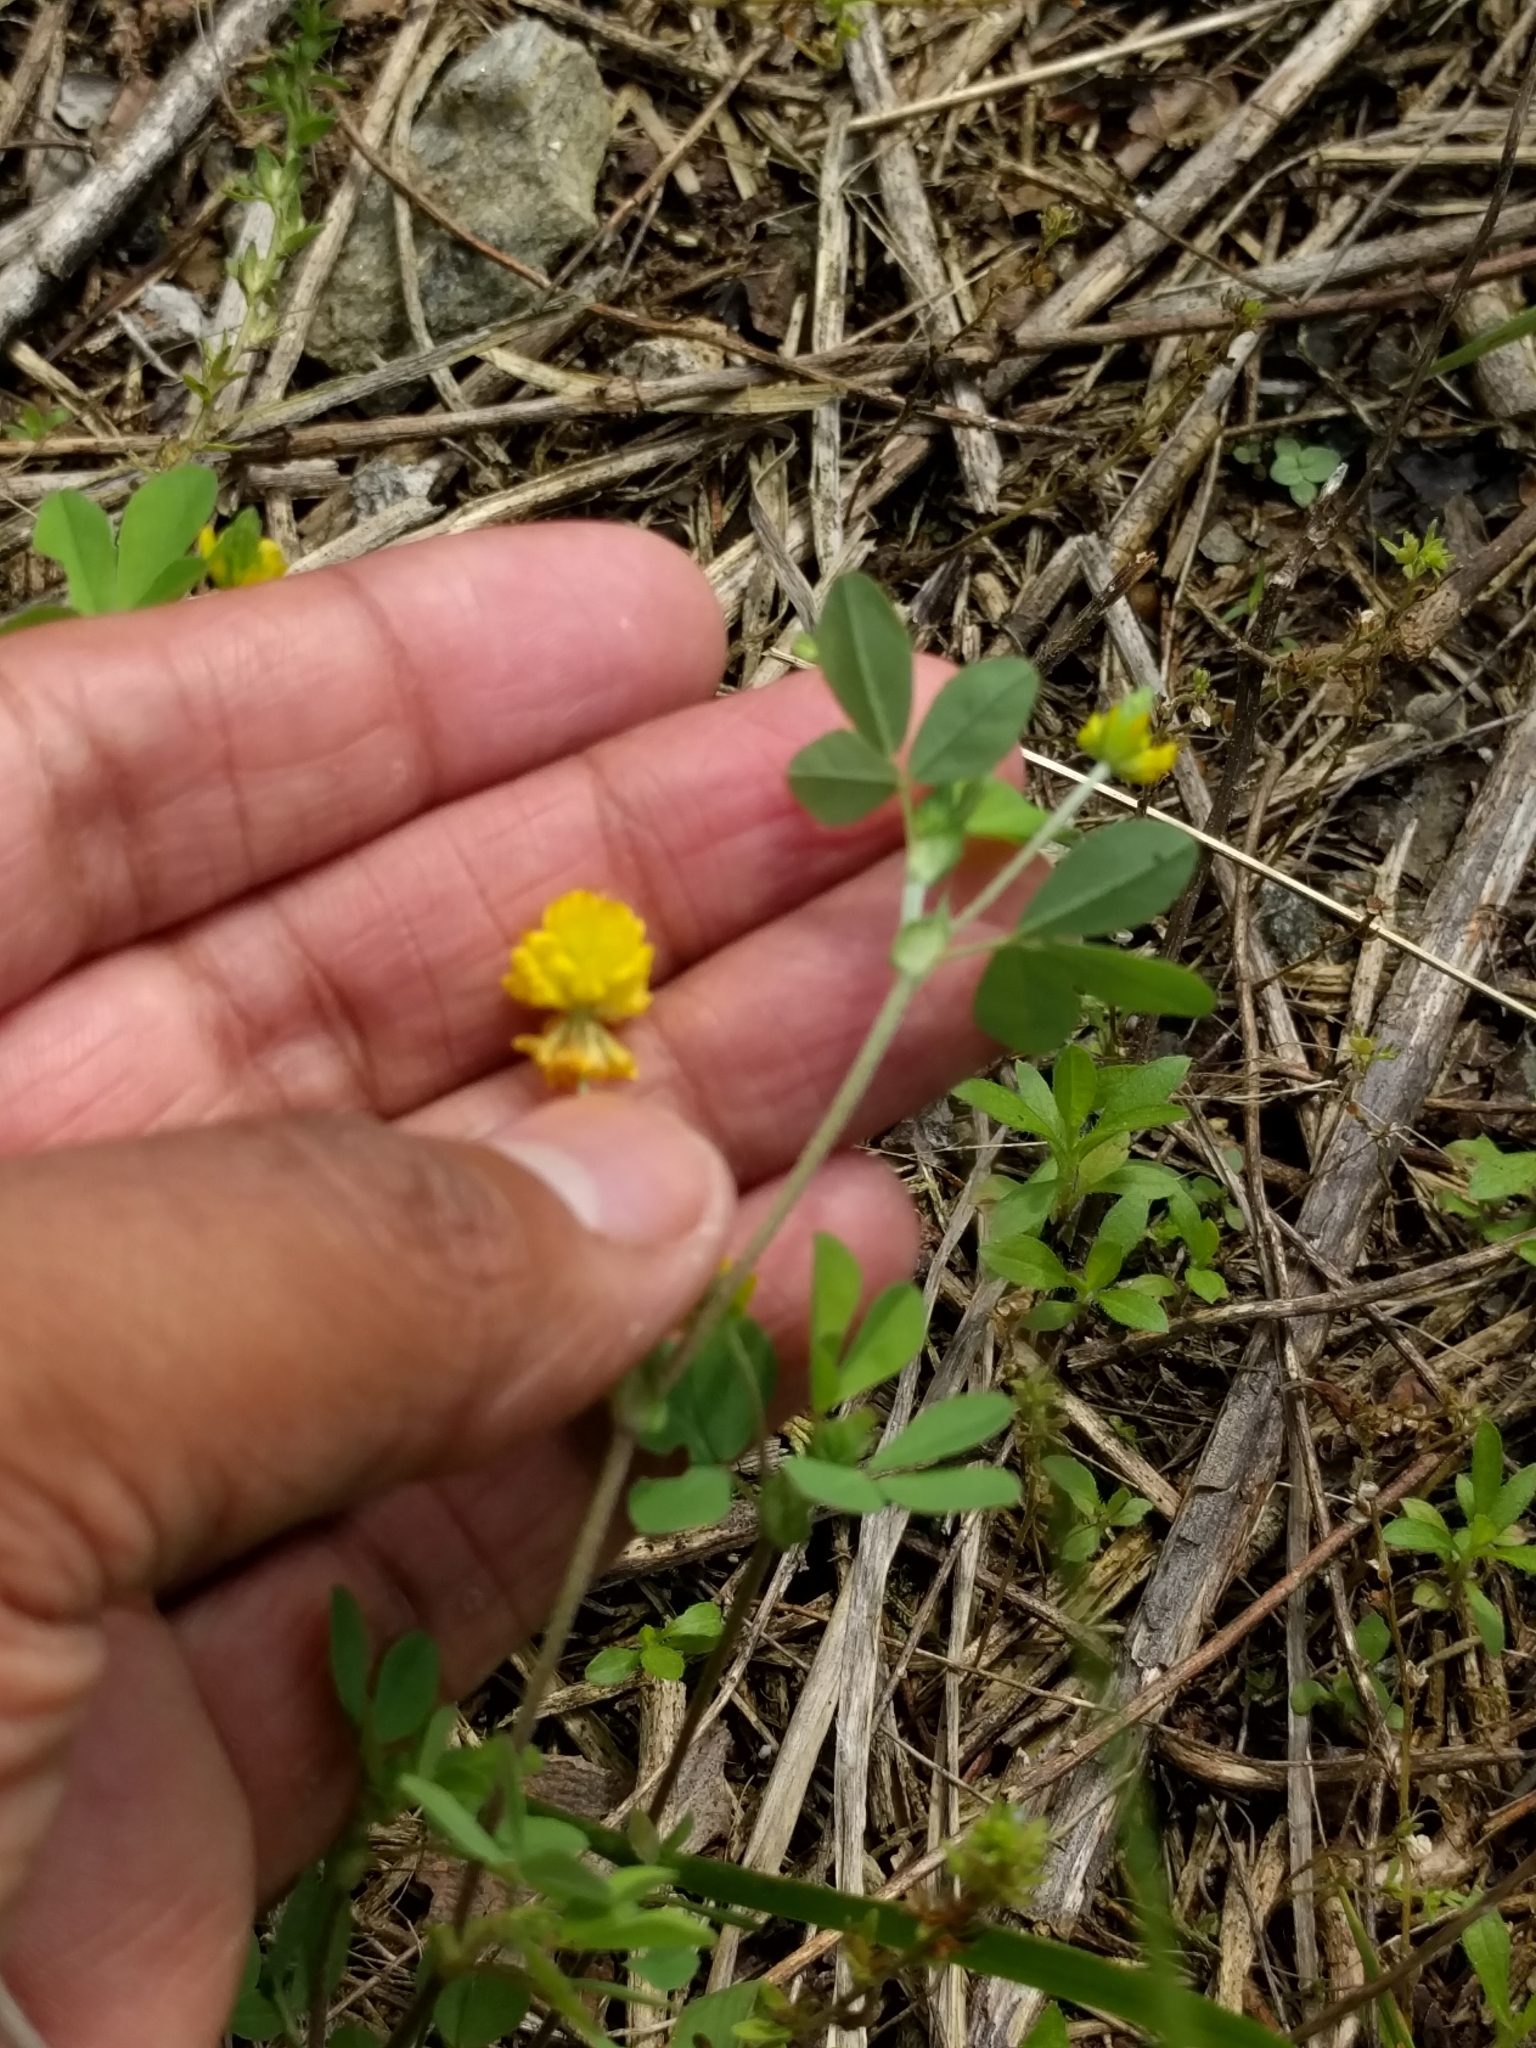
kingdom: Plantae
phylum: Tracheophyta
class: Magnoliopsida
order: Fabales
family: Fabaceae
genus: Trifolium
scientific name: Trifolium campestre
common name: Field clover
